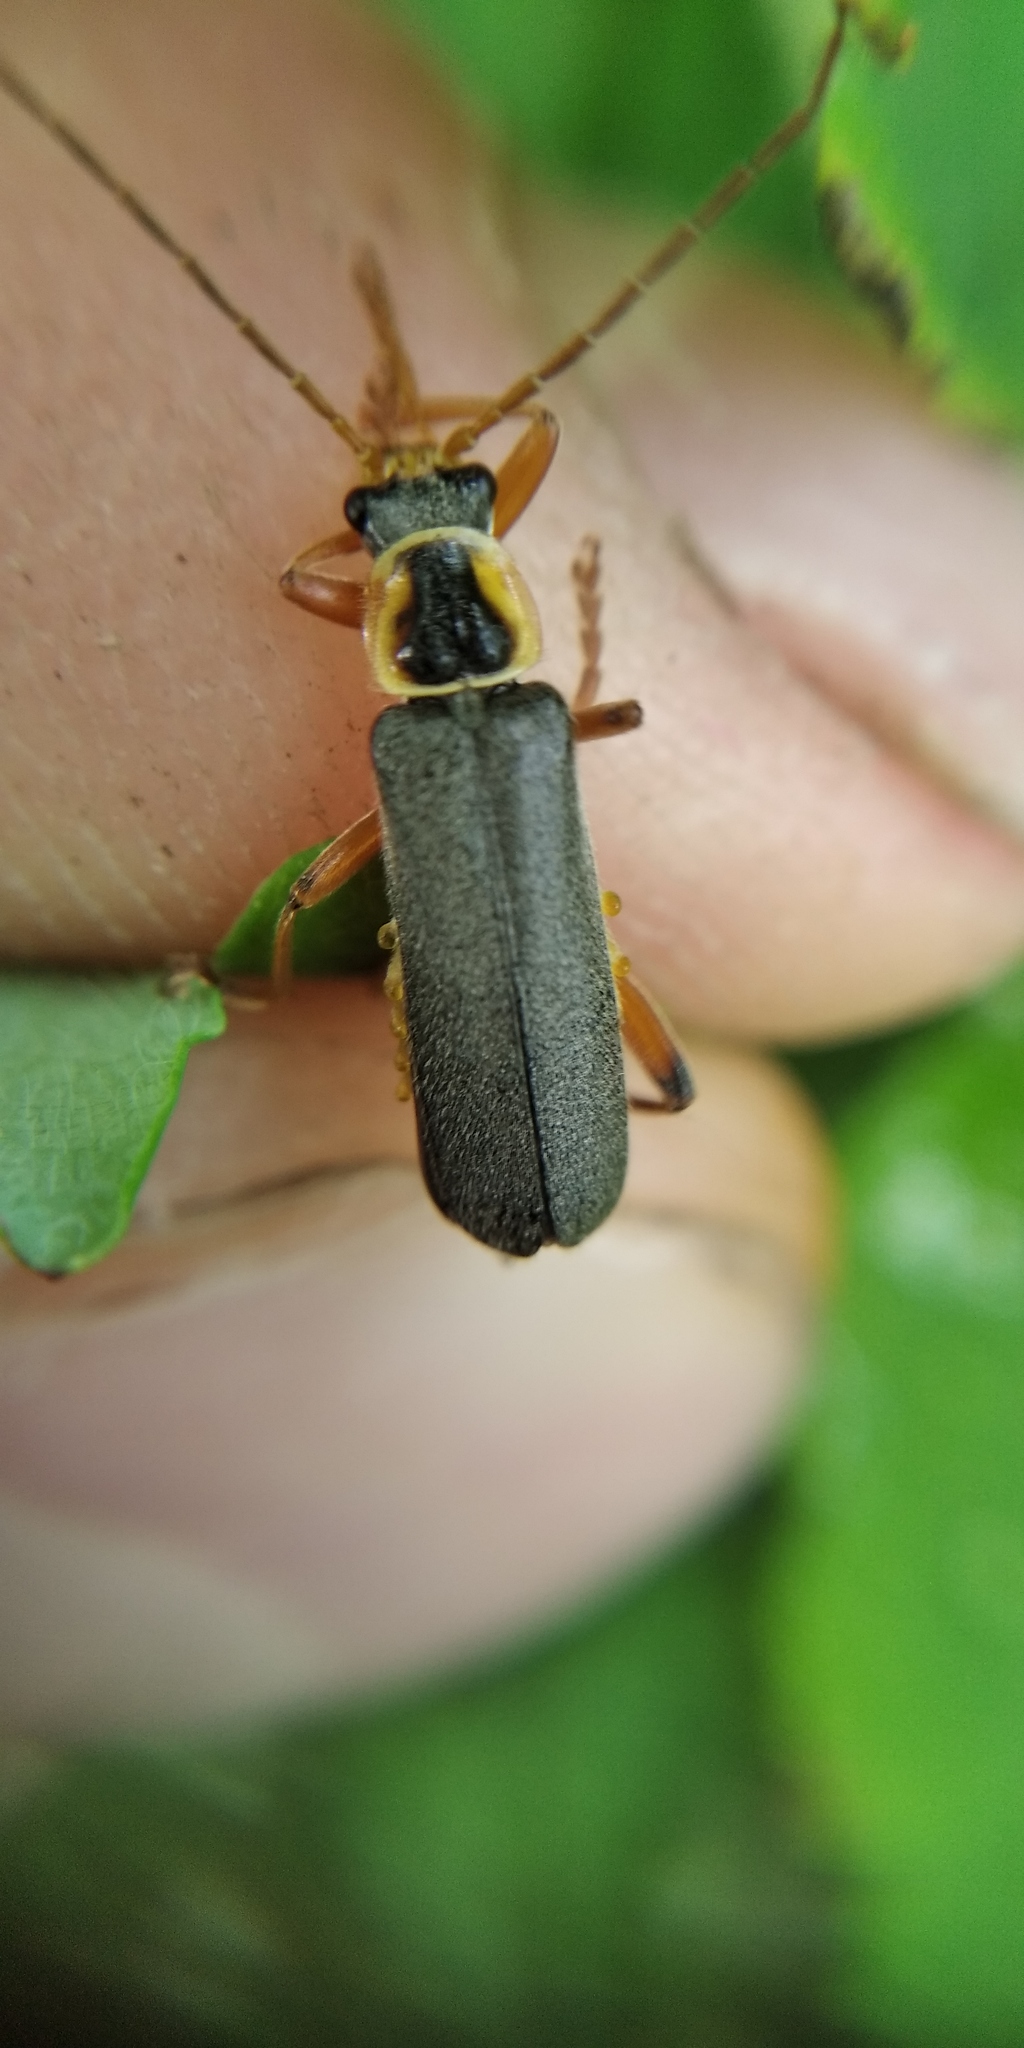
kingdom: Animalia
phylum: Arthropoda
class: Insecta
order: Coleoptera
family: Cantharidae
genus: Cantharis
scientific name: Cantharis nigricans
